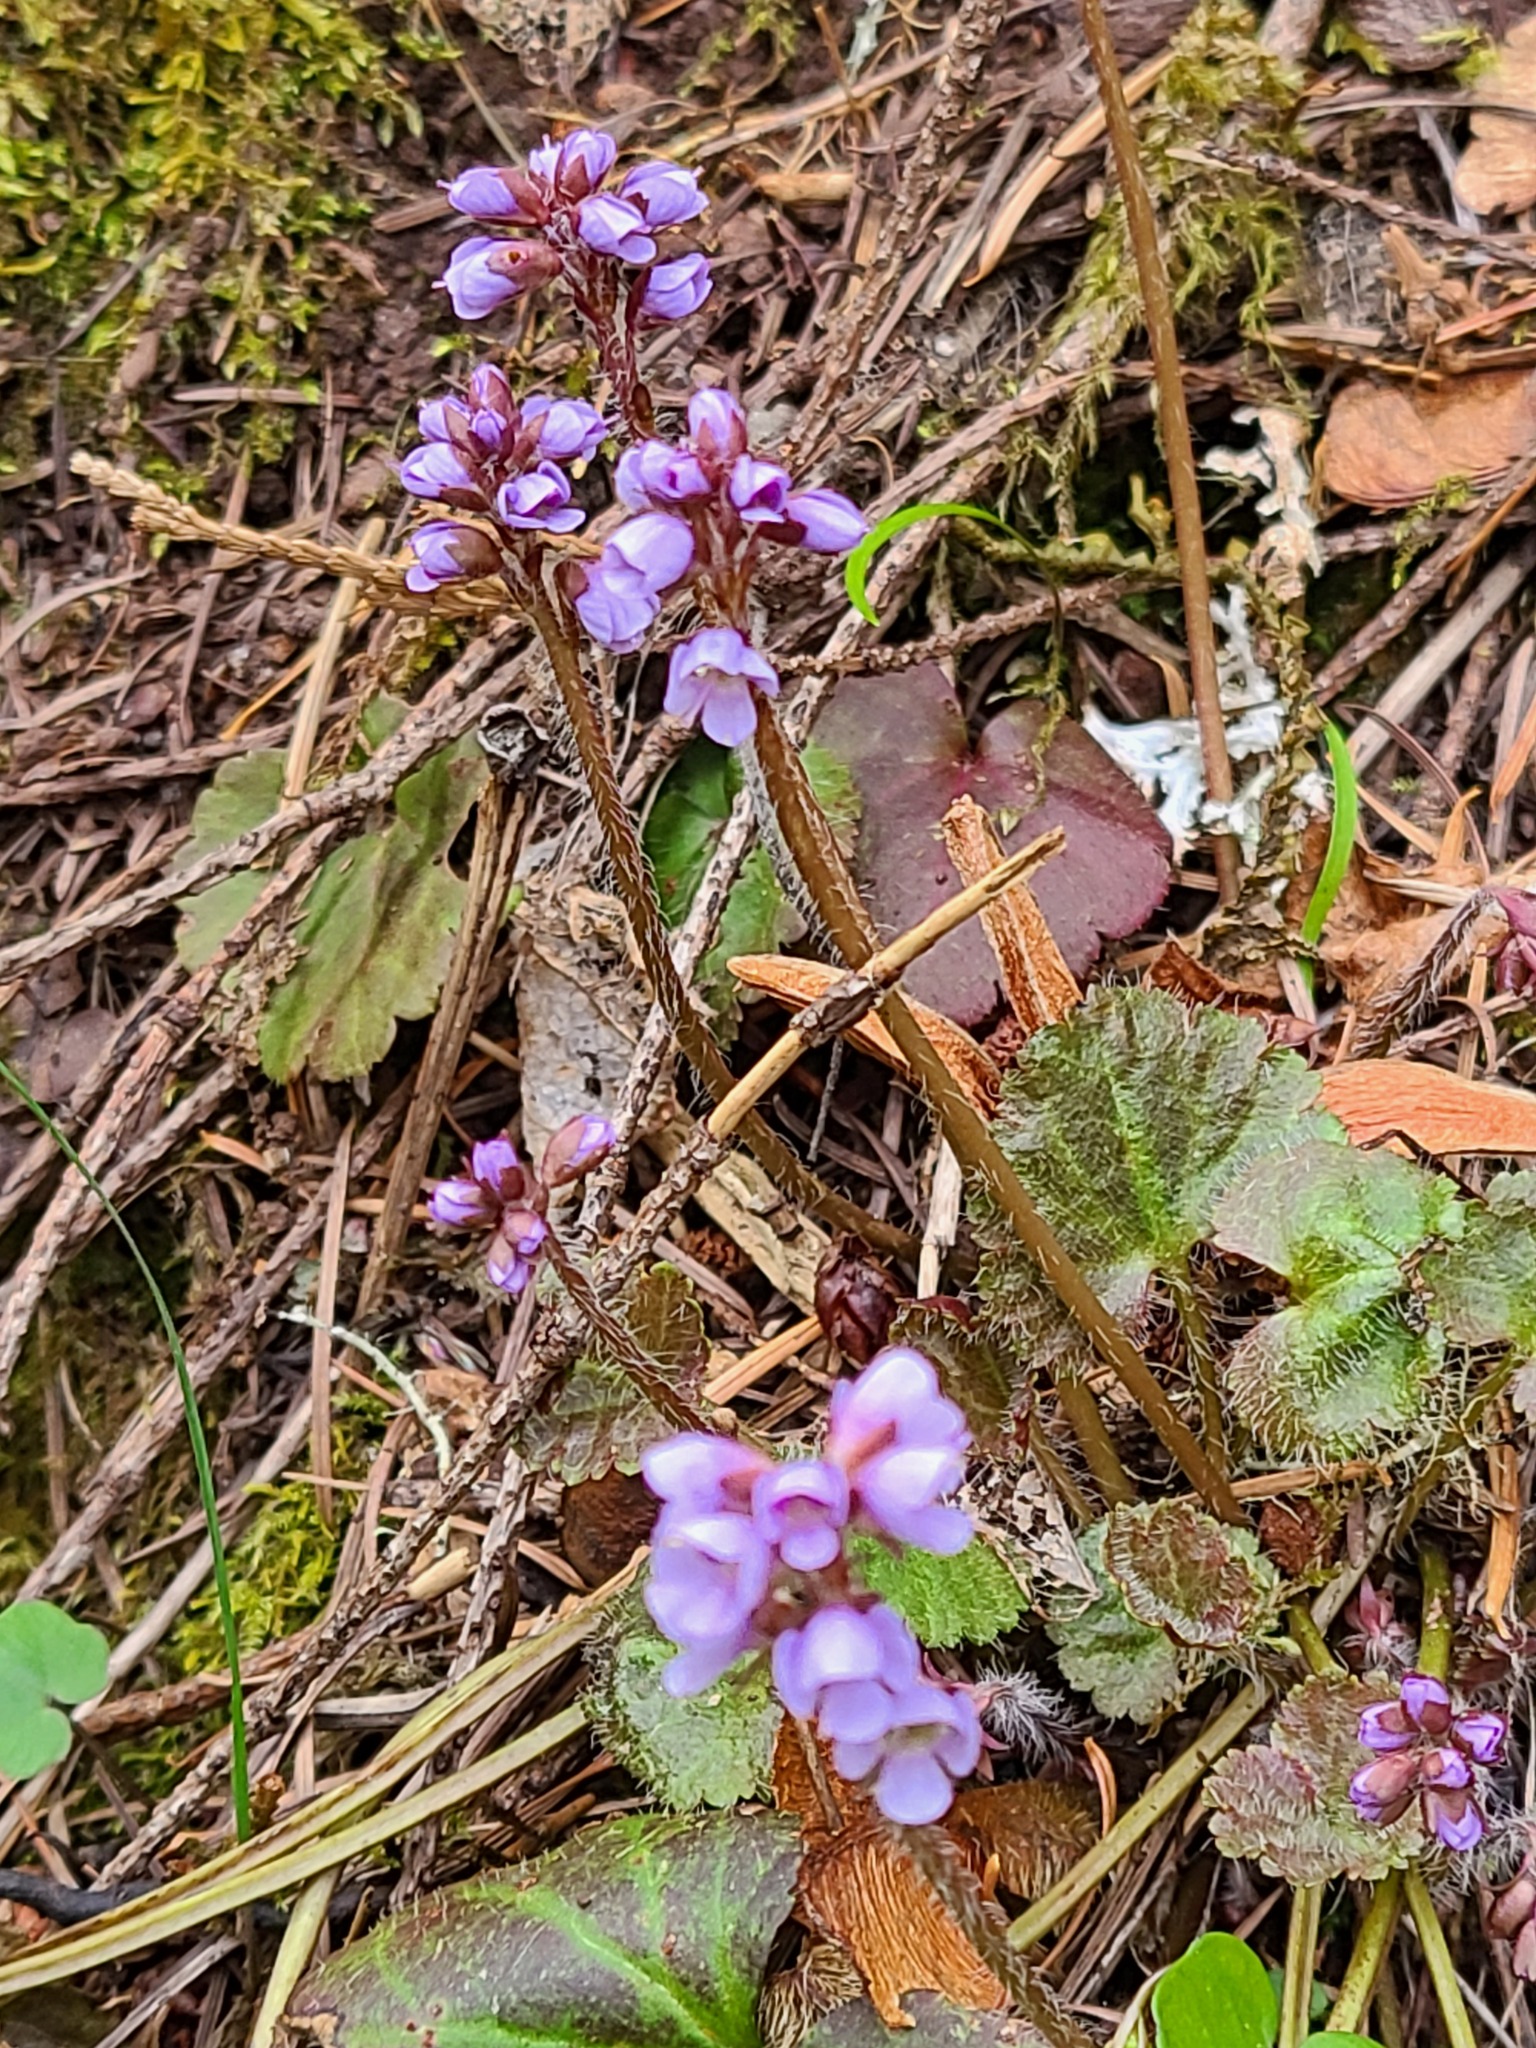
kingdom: Plantae
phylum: Tracheophyta
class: Magnoliopsida
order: Lamiales
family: Plantaginaceae
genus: Synthyris
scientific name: Synthyris reniformis
